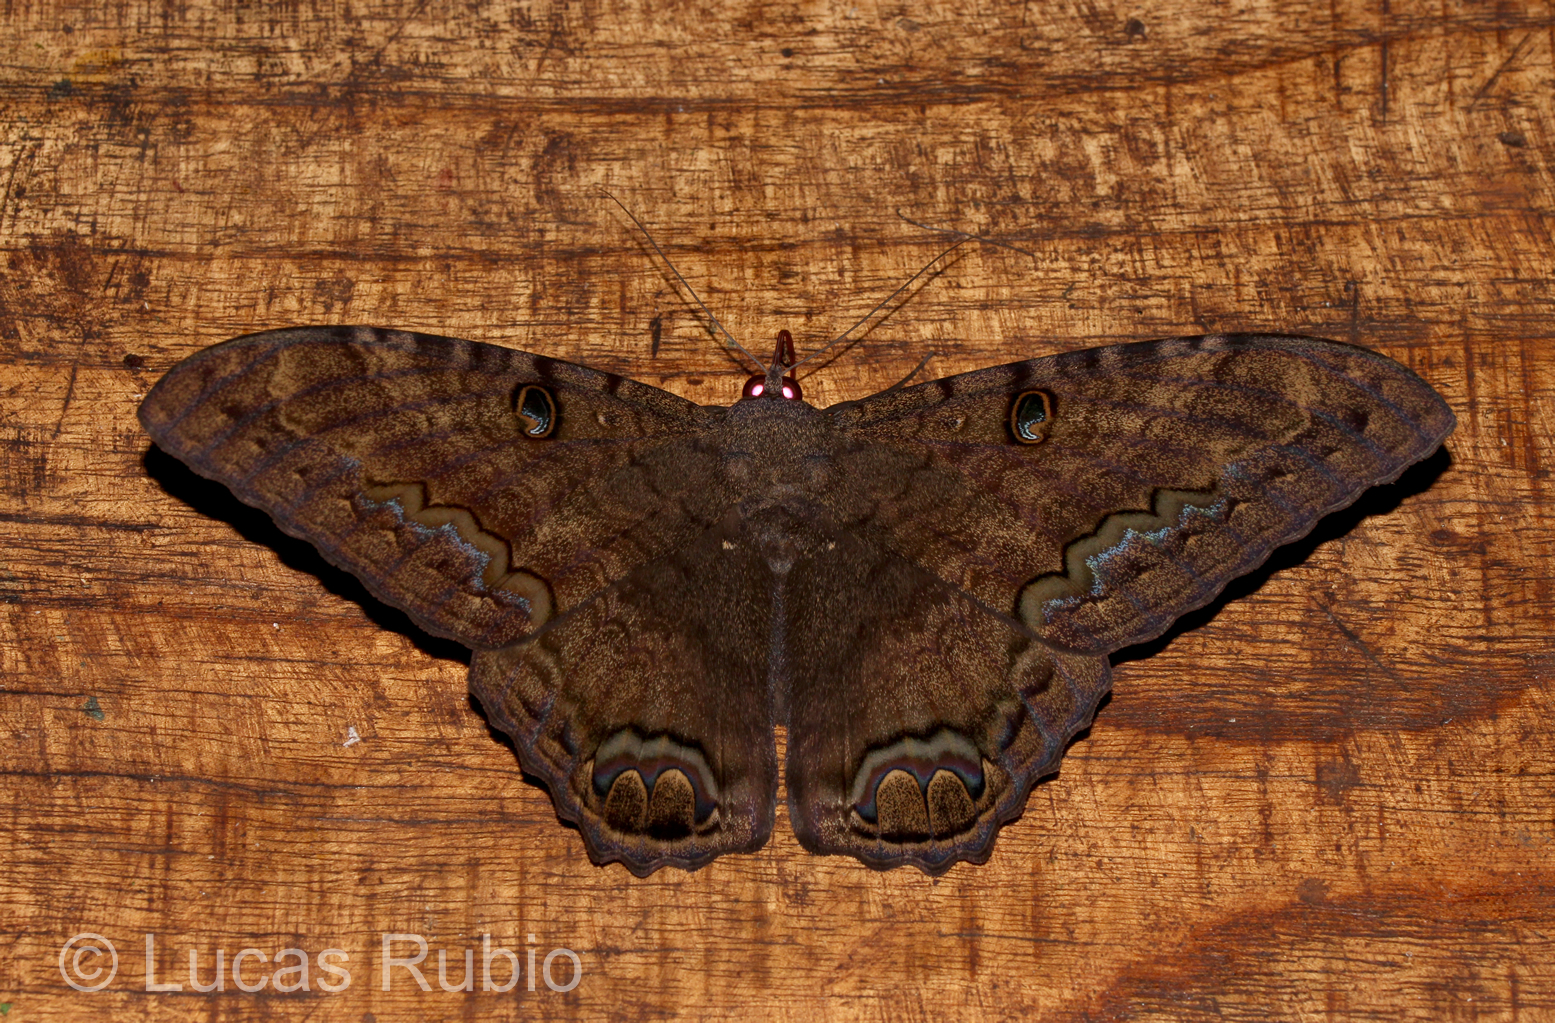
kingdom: Animalia
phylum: Arthropoda
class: Insecta
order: Lepidoptera
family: Erebidae
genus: Ascalapha
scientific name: Ascalapha odorata
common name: Black witch
